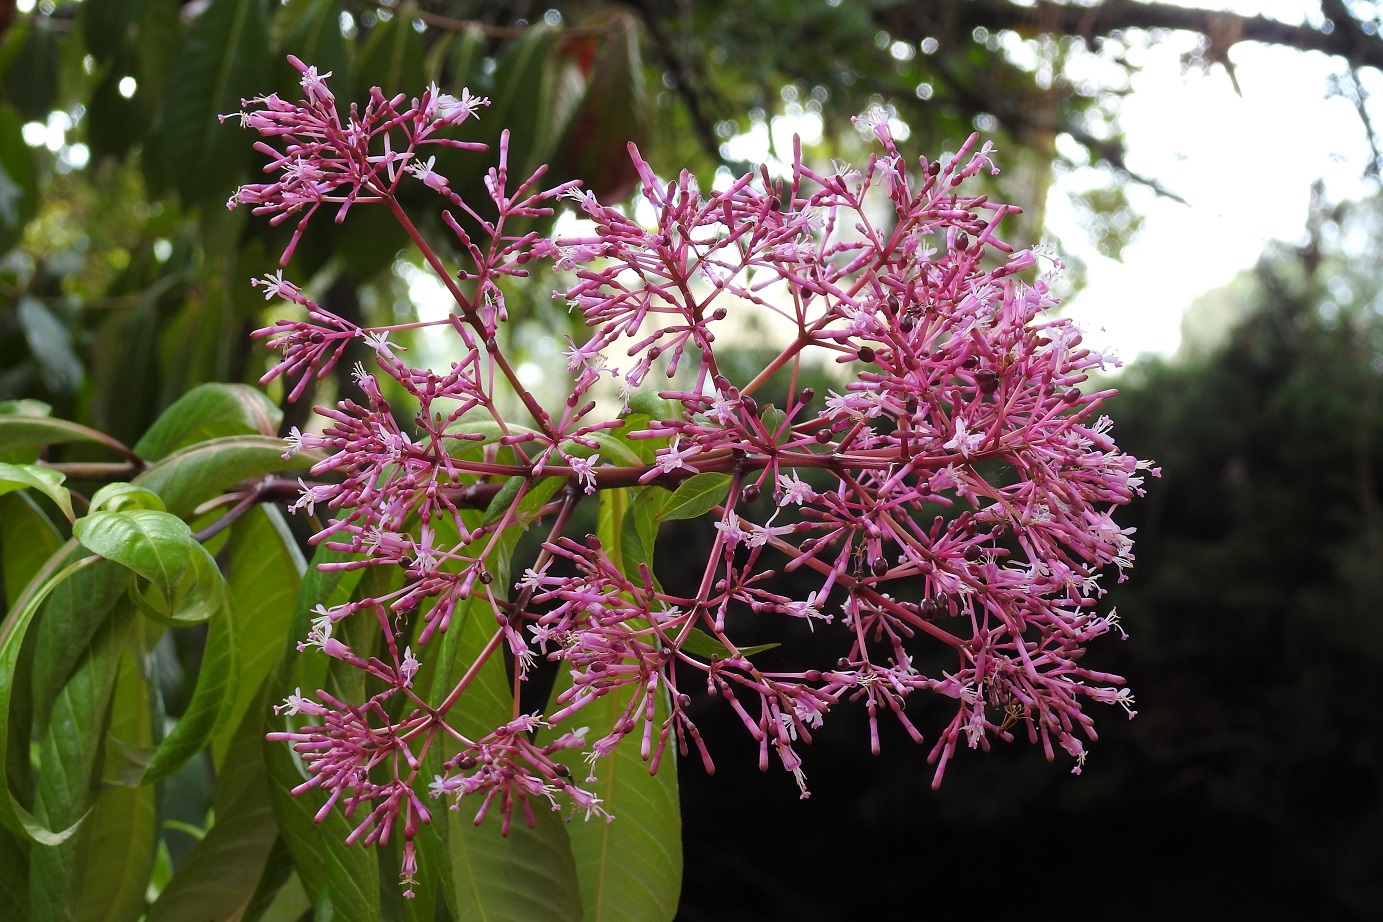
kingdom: Plantae
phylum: Tracheophyta
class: Magnoliopsida
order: Myrtales
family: Onagraceae
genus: Fuchsia
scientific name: Fuchsia paniculata
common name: Shrubby fuchsia
